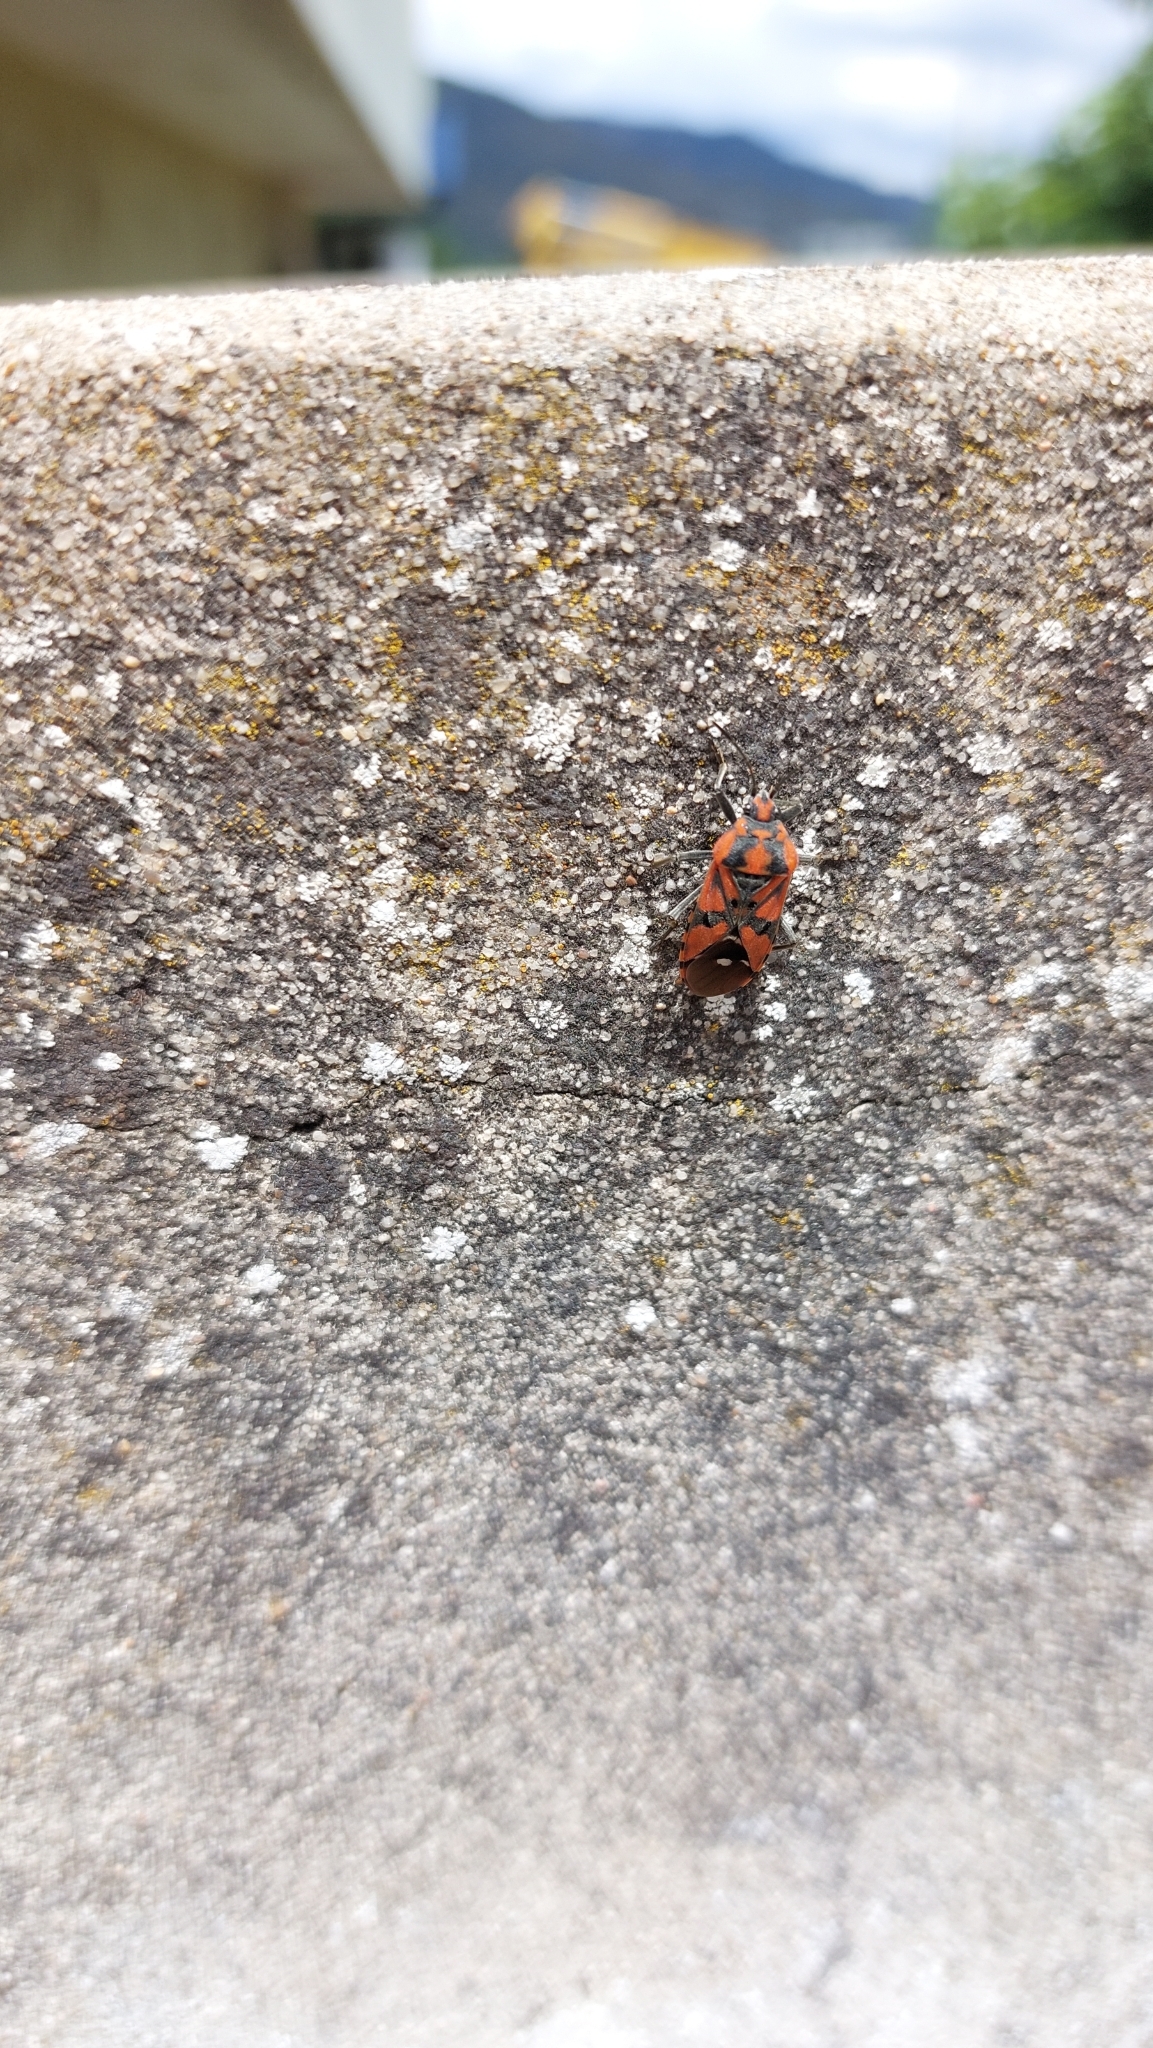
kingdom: Animalia
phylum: Arthropoda
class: Insecta
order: Hemiptera
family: Lygaeidae
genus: Spilostethus
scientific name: Spilostethus pandurus
